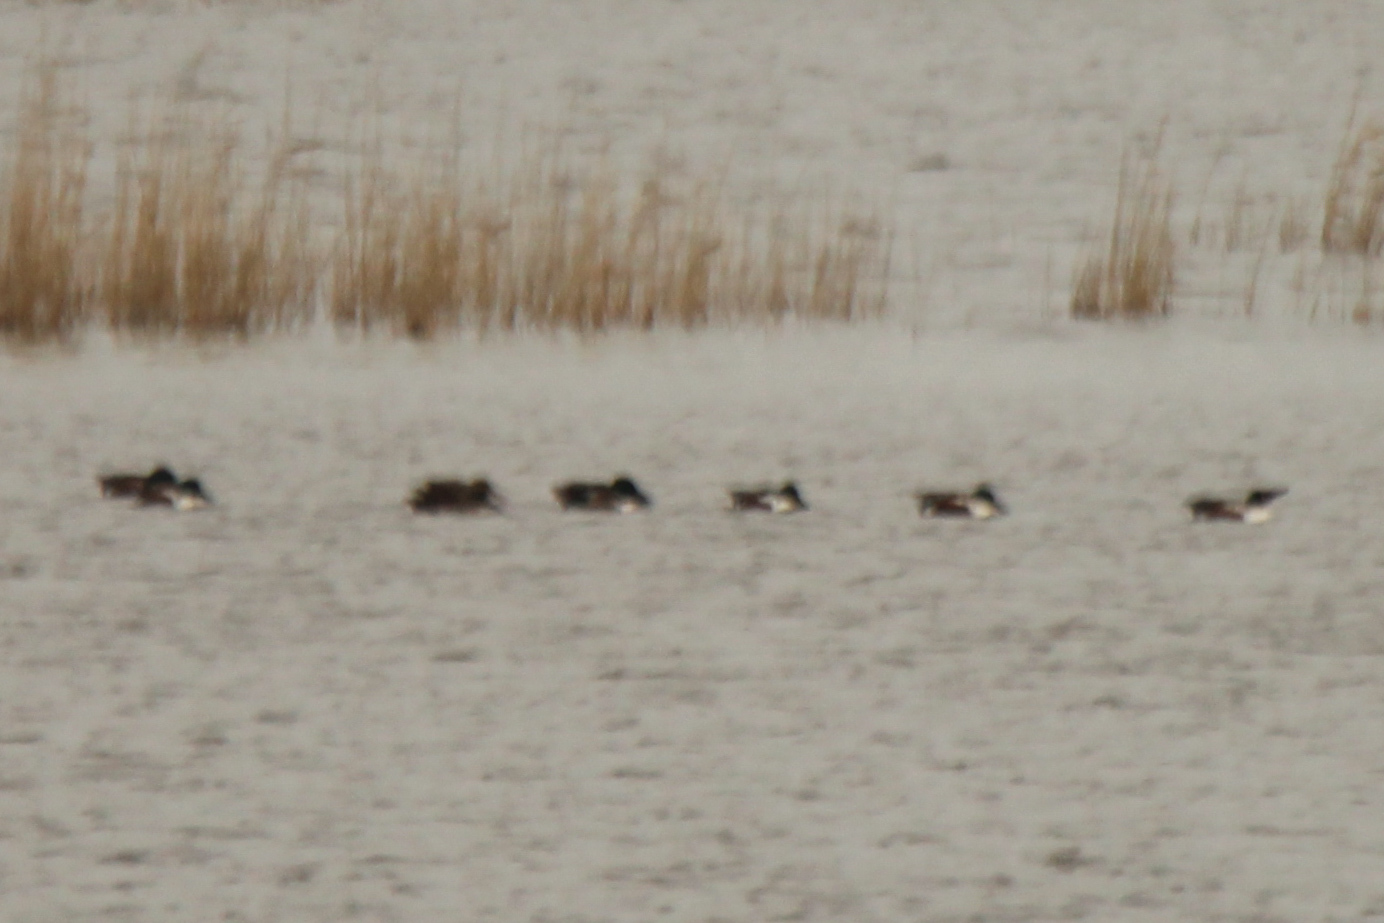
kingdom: Animalia
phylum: Chordata
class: Aves
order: Anseriformes
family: Anatidae
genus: Spatula
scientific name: Spatula clypeata
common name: Northern shoveler
